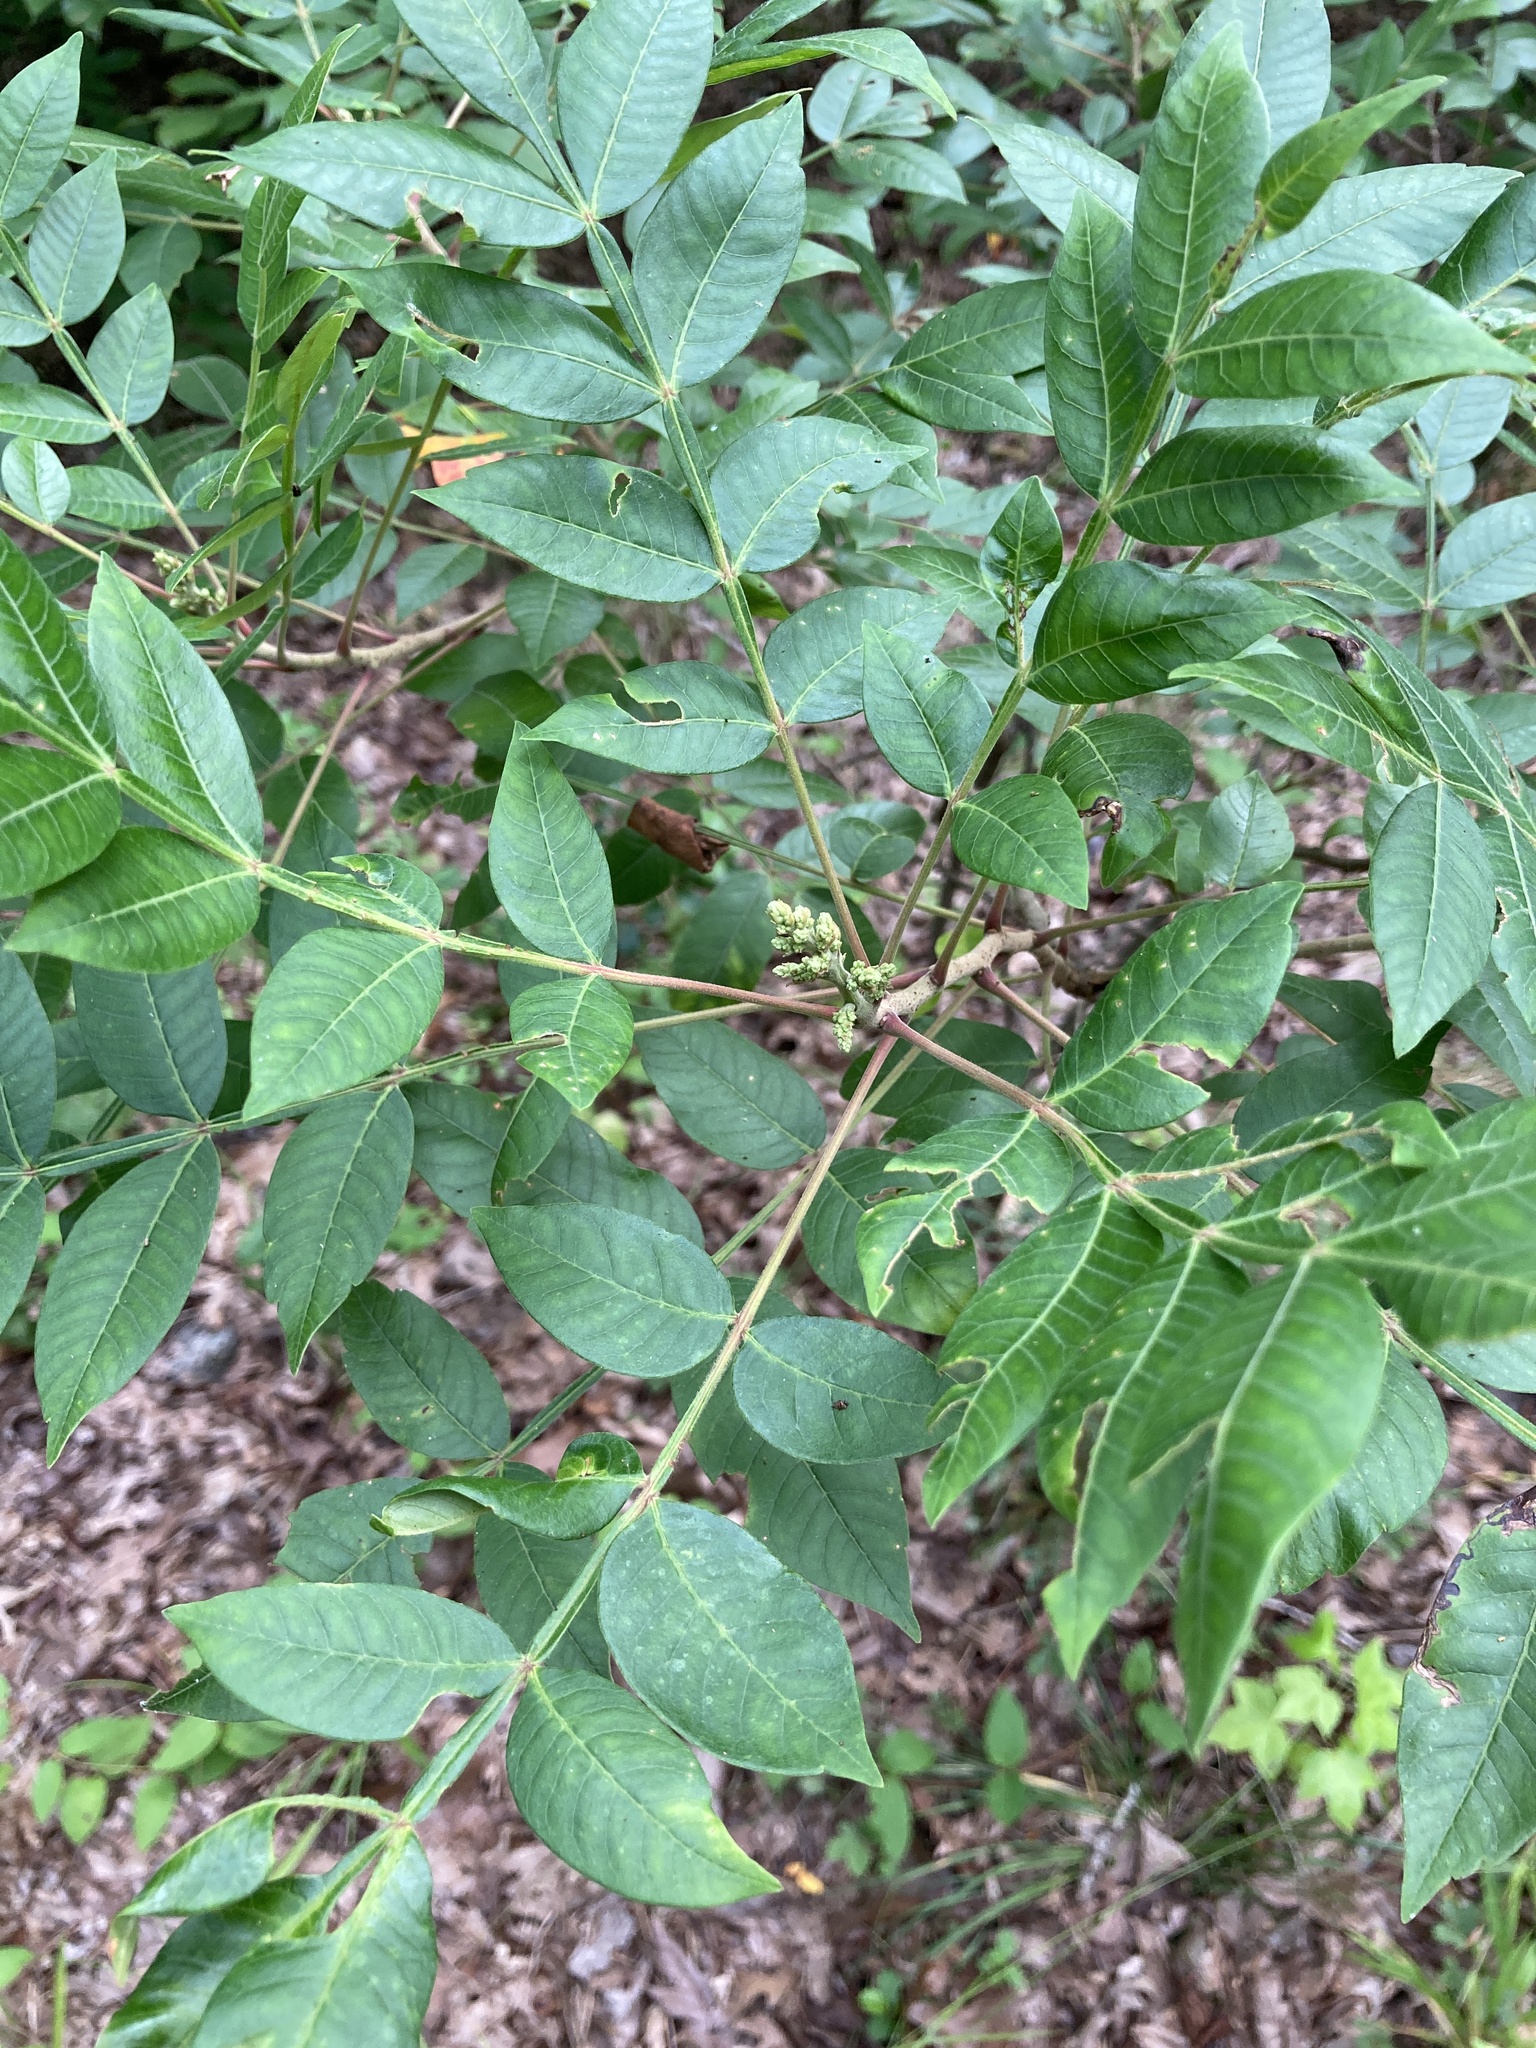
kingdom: Plantae
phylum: Tracheophyta
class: Magnoliopsida
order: Sapindales
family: Anacardiaceae
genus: Rhus
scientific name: Rhus copallina
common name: Shining sumac
